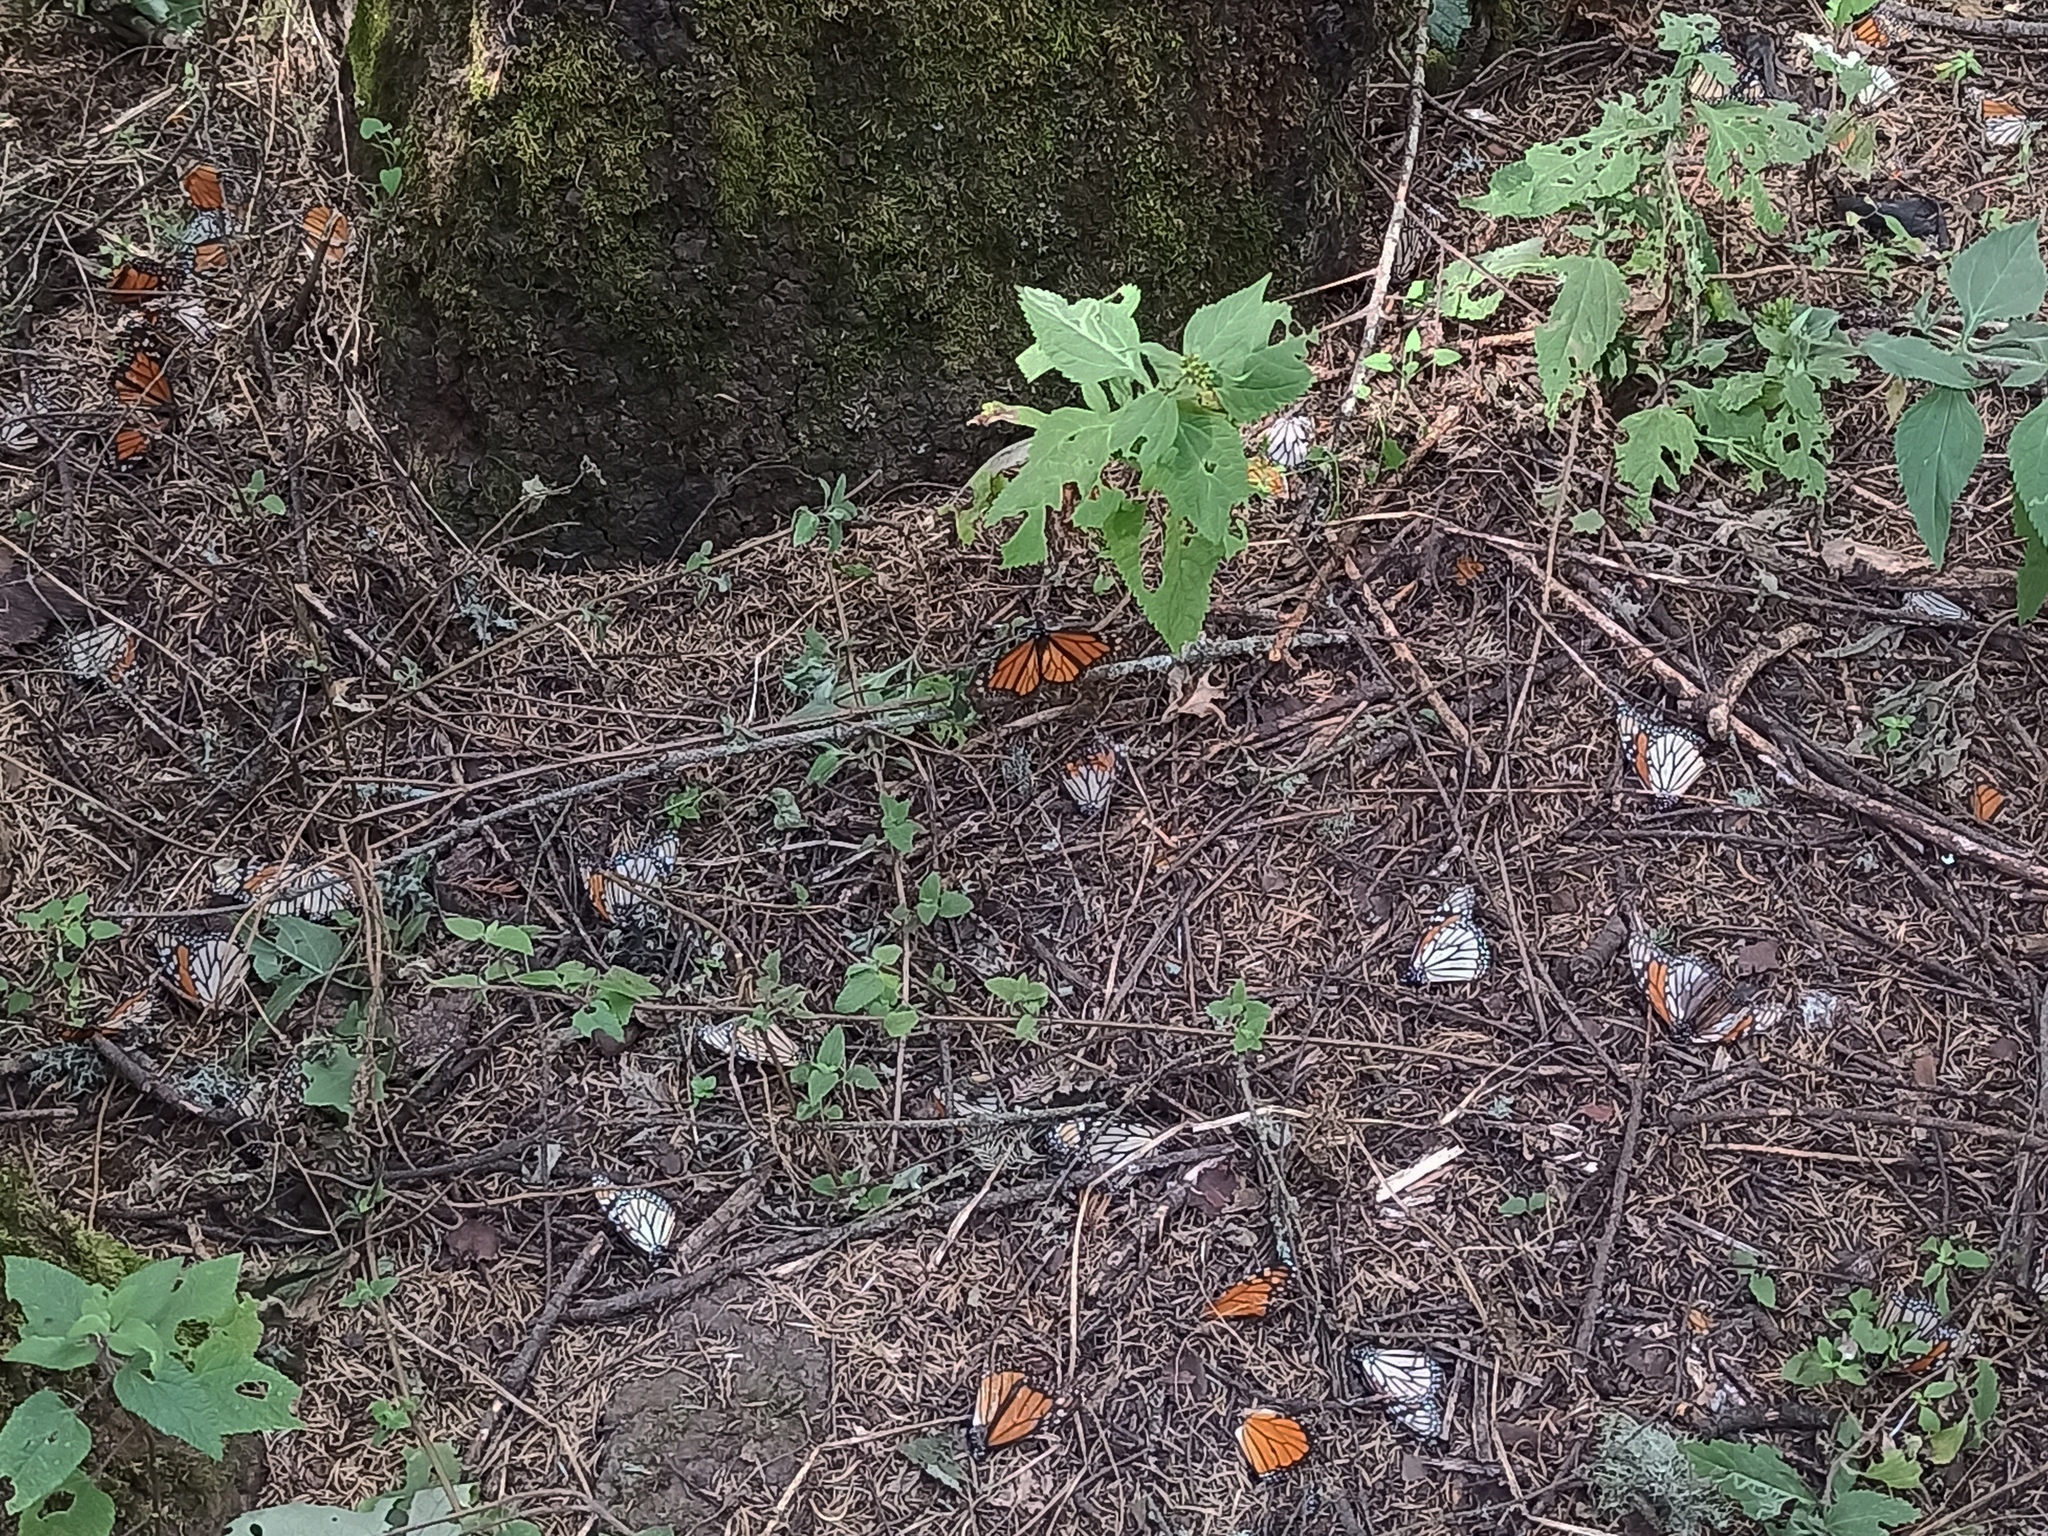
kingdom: Animalia
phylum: Arthropoda
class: Insecta
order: Lepidoptera
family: Nymphalidae
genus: Danaus
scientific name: Danaus plexippus
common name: Monarch
